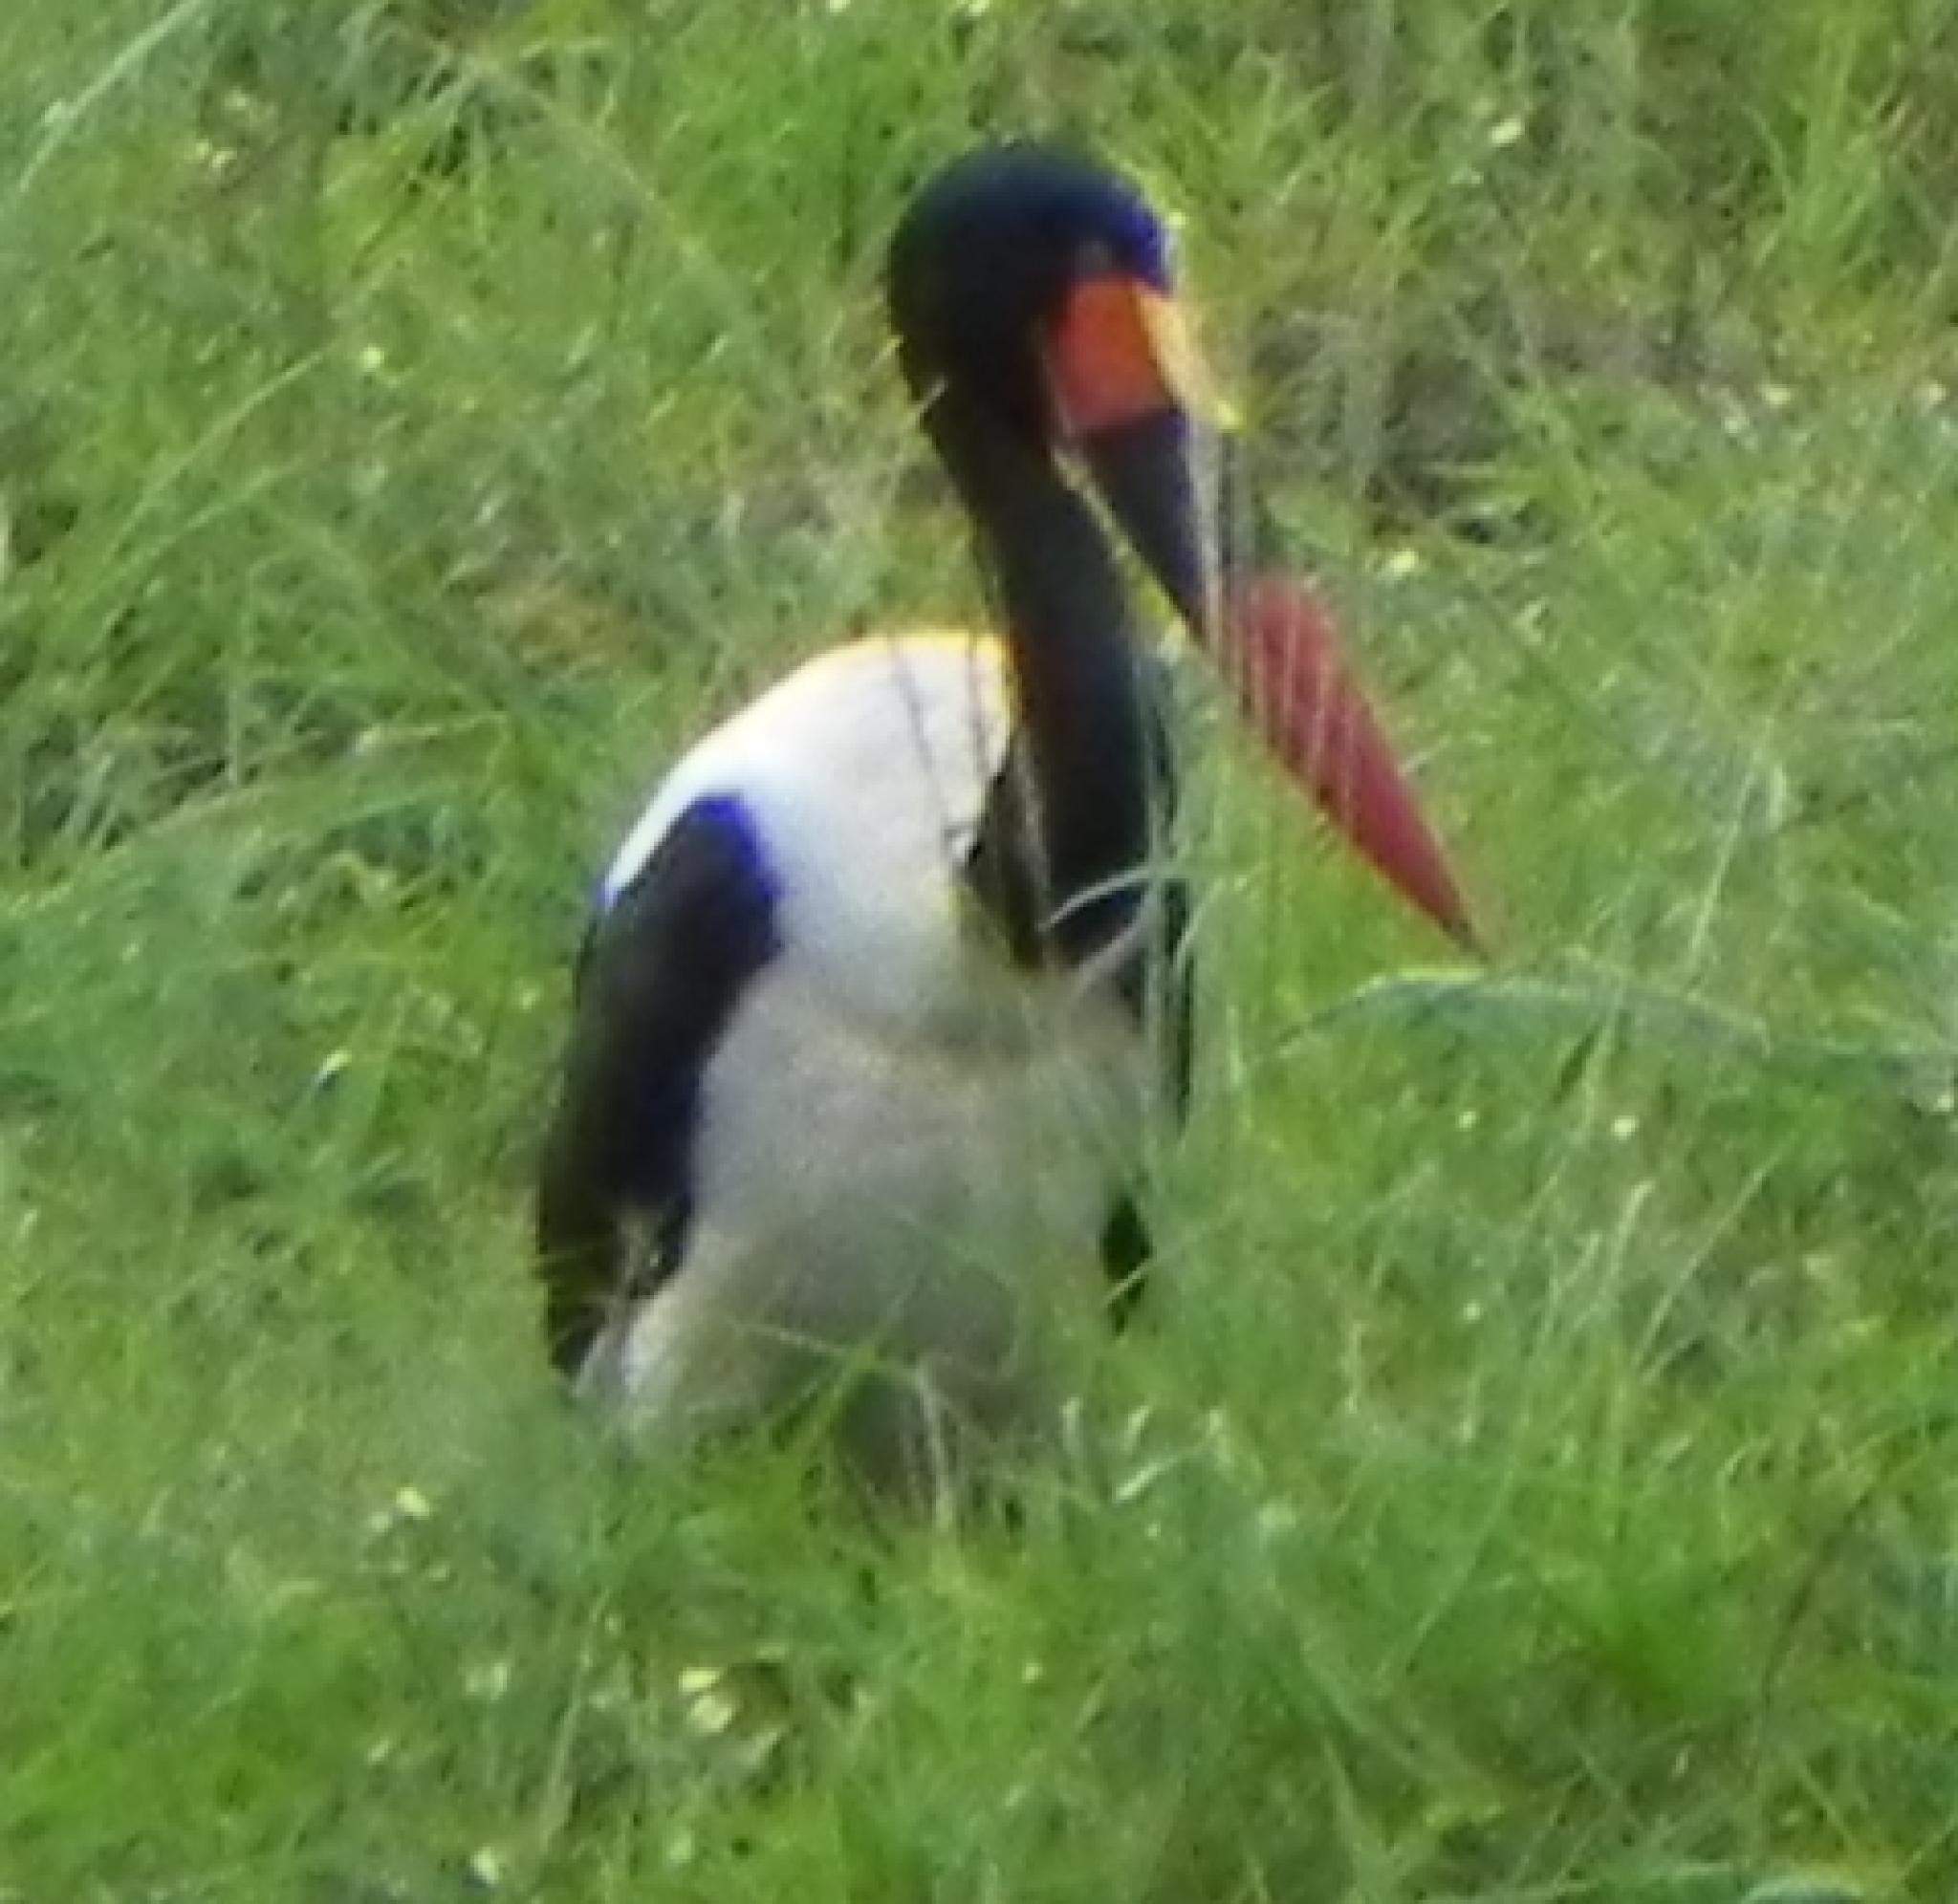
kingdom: Animalia
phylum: Chordata
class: Aves
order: Ciconiiformes
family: Ciconiidae
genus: Ephippiorhynchus
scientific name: Ephippiorhynchus senegalensis
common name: Saddle-billed stork
